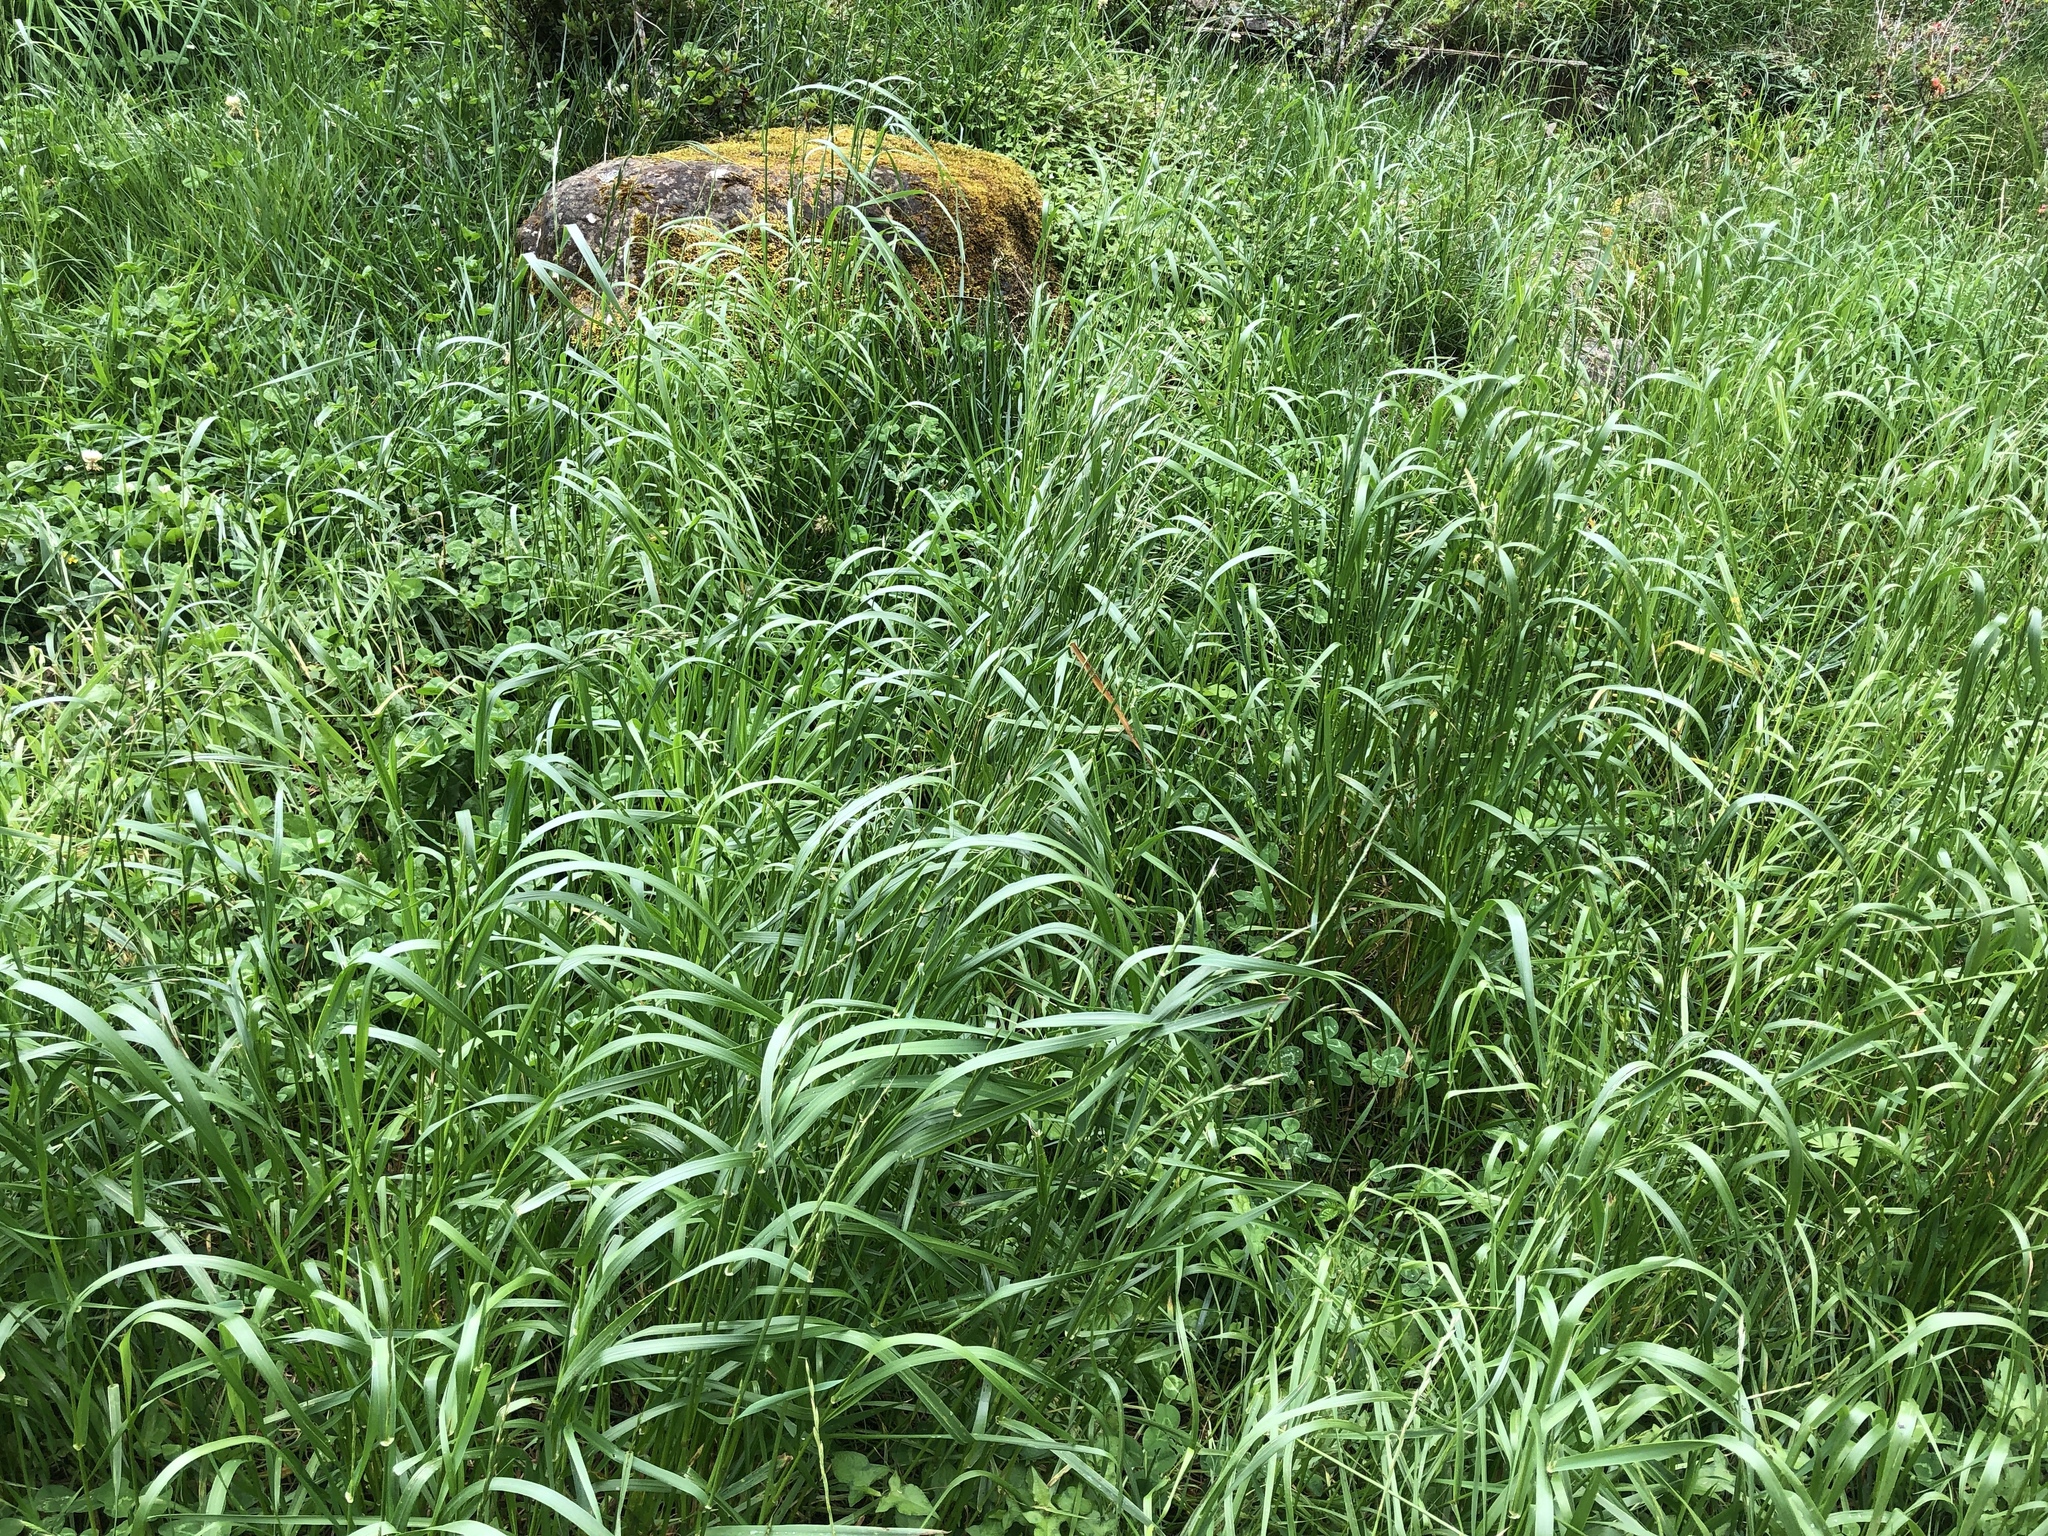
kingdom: Plantae
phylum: Tracheophyta
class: Liliopsida
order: Poales
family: Poaceae
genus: Lolium
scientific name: Lolium multiflorum
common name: Annual ryegrass
